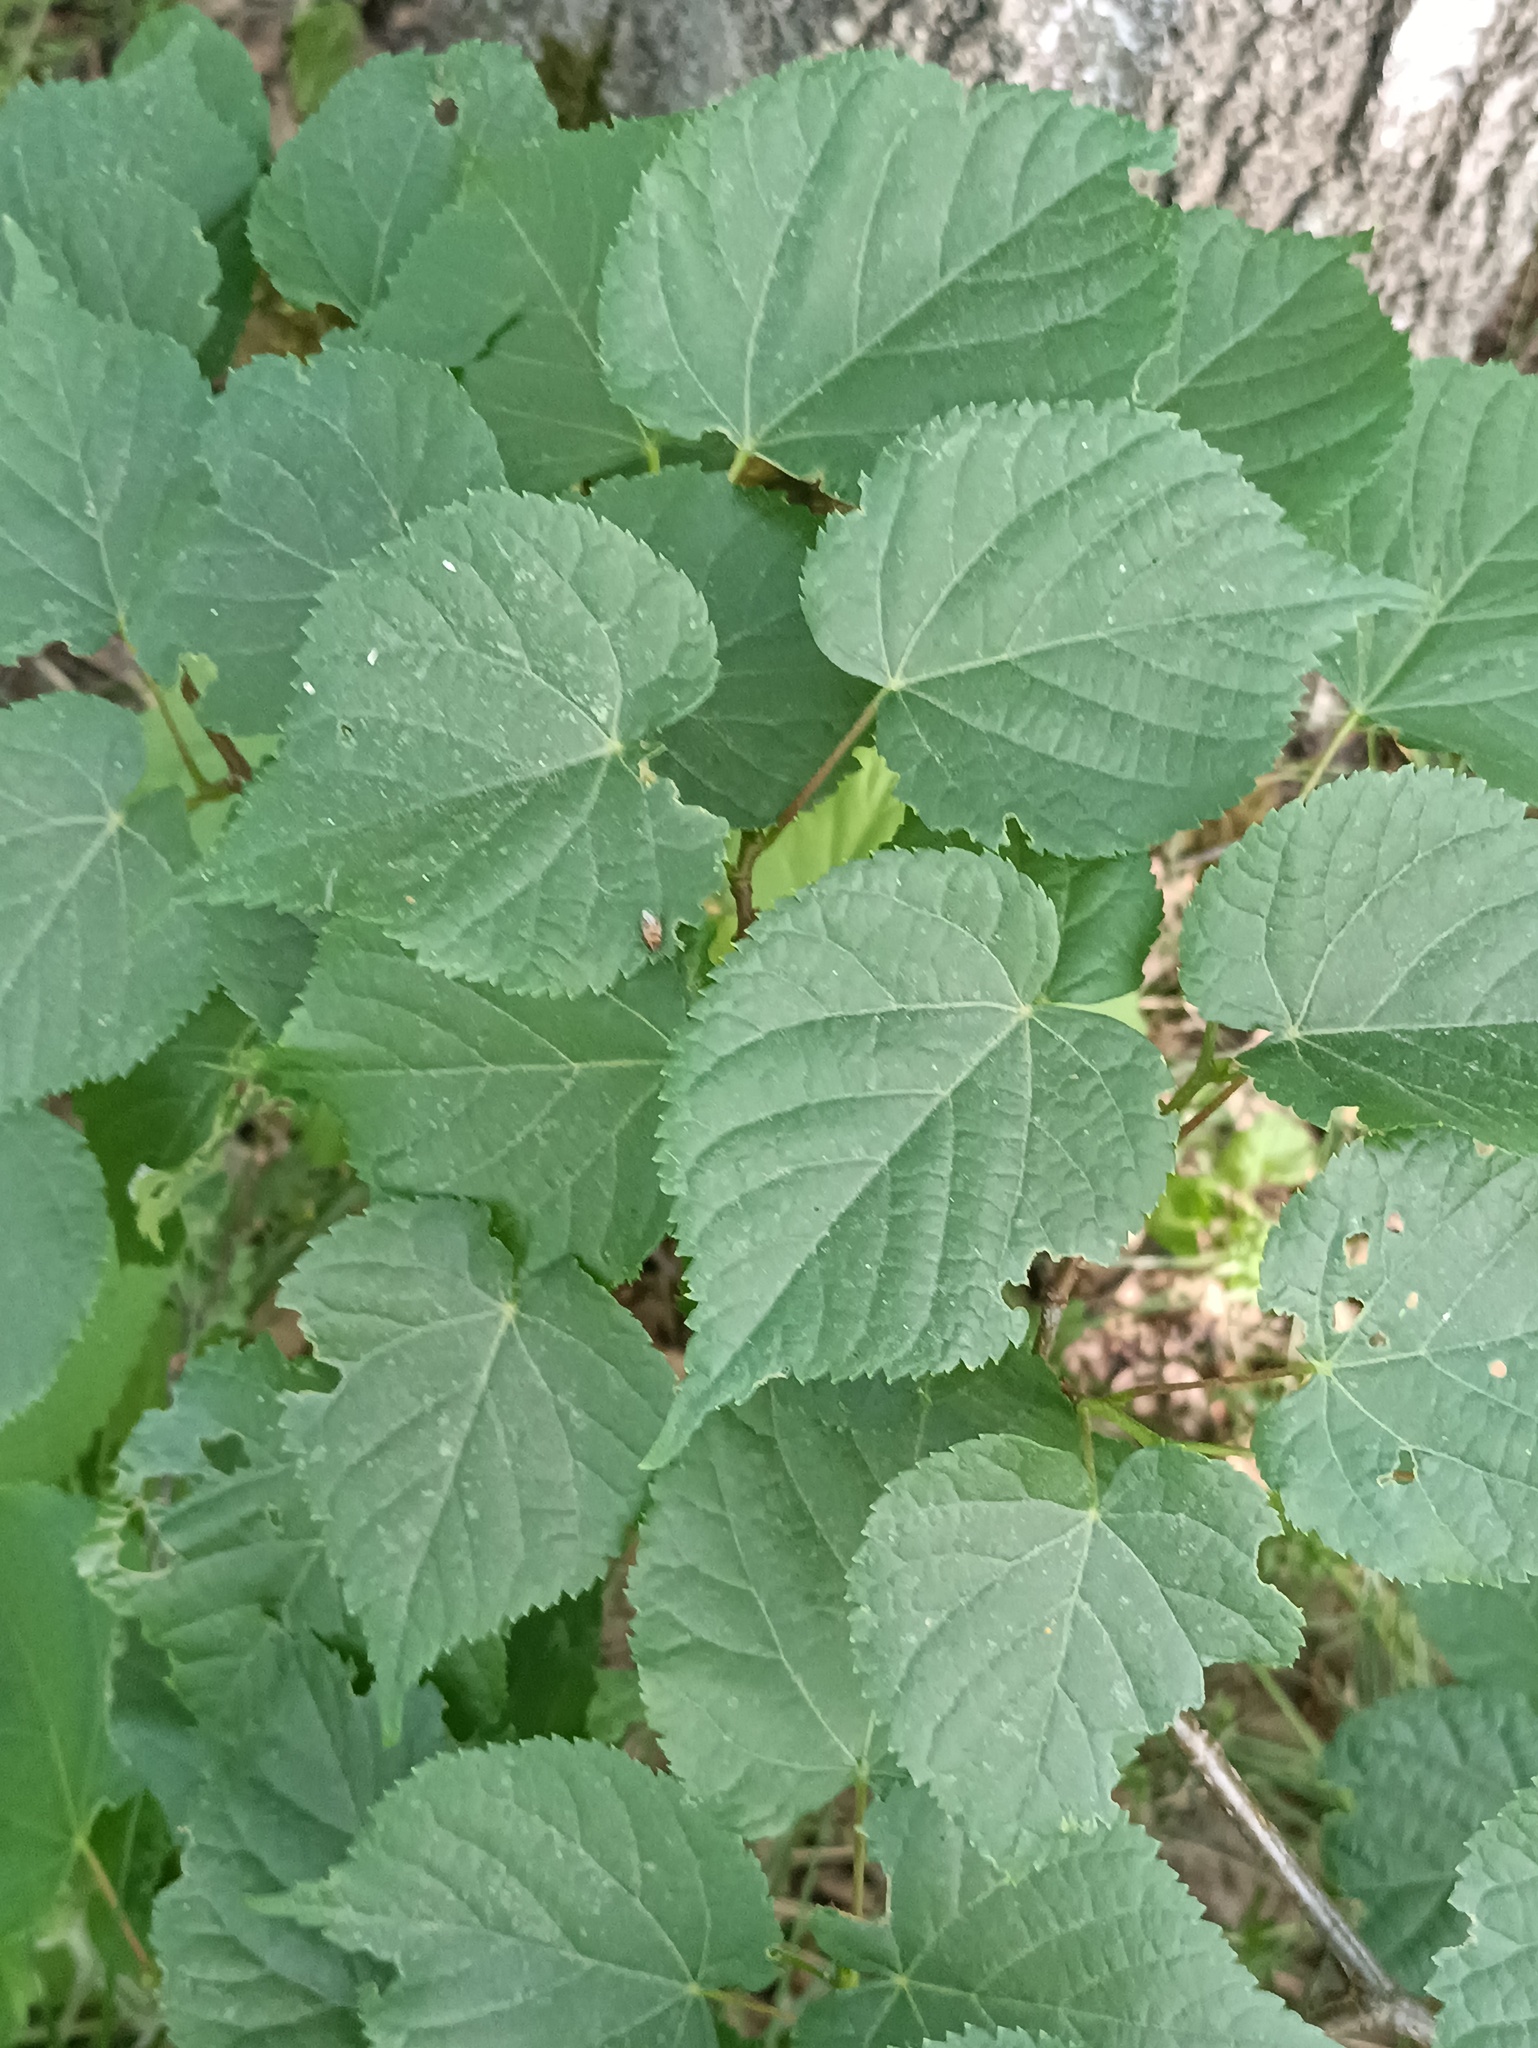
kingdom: Plantae
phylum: Tracheophyta
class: Magnoliopsida
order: Malvales
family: Malvaceae
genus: Tilia
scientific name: Tilia cordata
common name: Small-leaved lime
